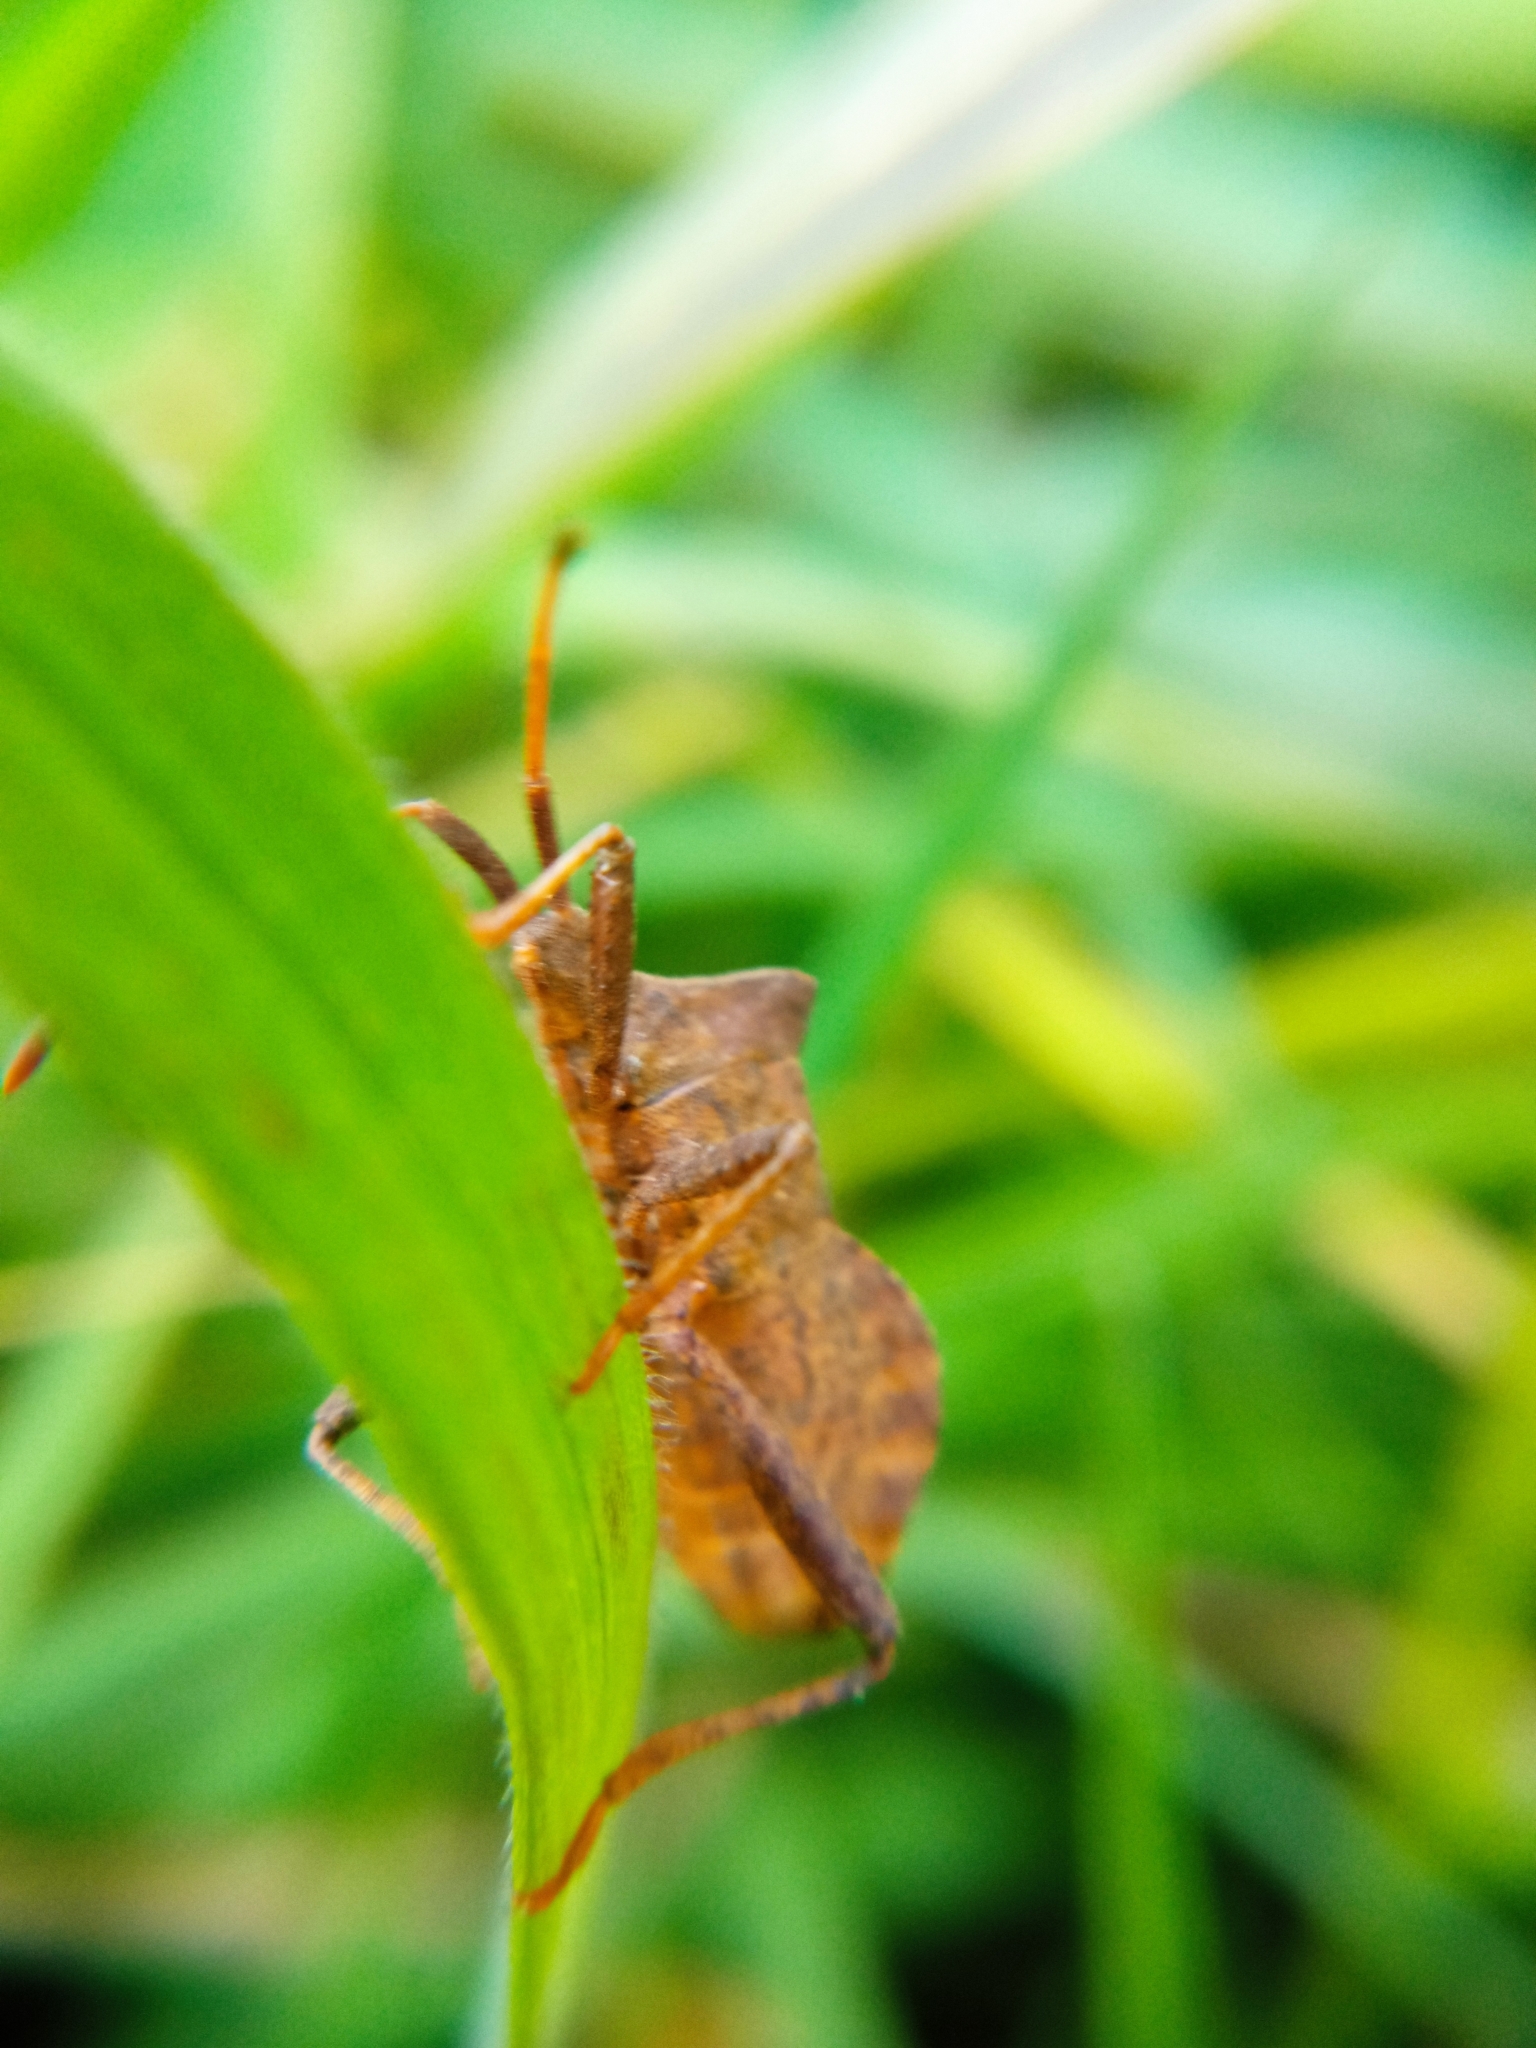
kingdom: Animalia
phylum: Arthropoda
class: Insecta
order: Hemiptera
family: Coreidae
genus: Coreus
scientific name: Coreus marginatus
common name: Dock bug
